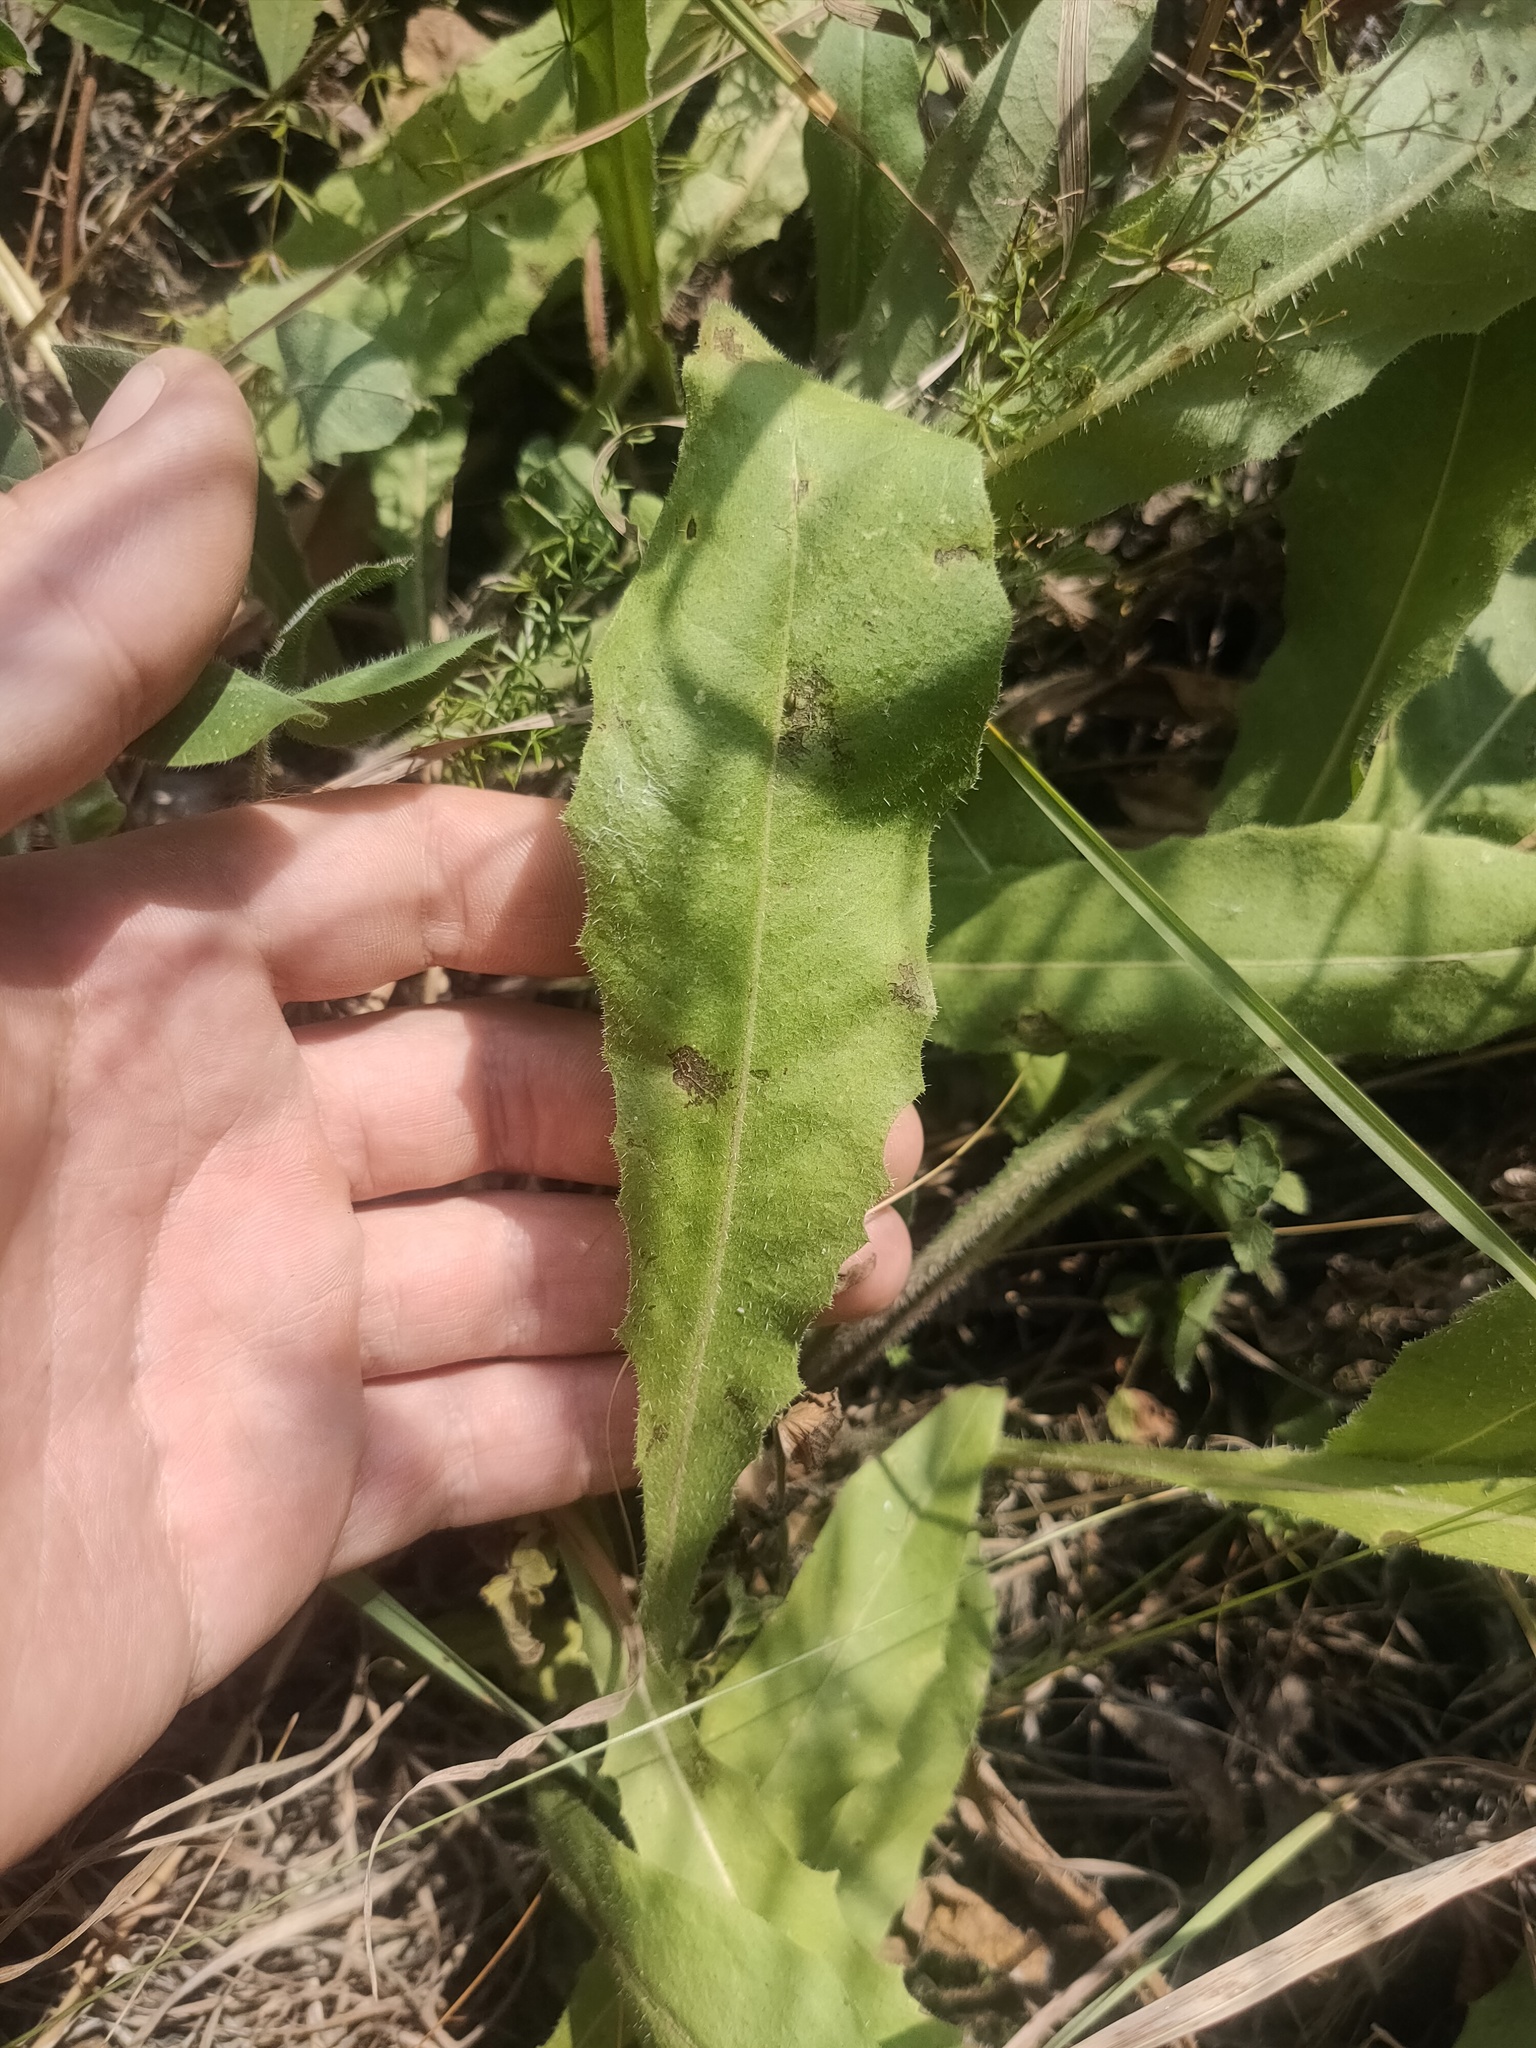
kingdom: Plantae
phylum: Tracheophyta
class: Magnoliopsida
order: Asterales
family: Asteraceae
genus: Picris
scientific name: Picris hieracioides
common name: Hawkweed oxtongue
